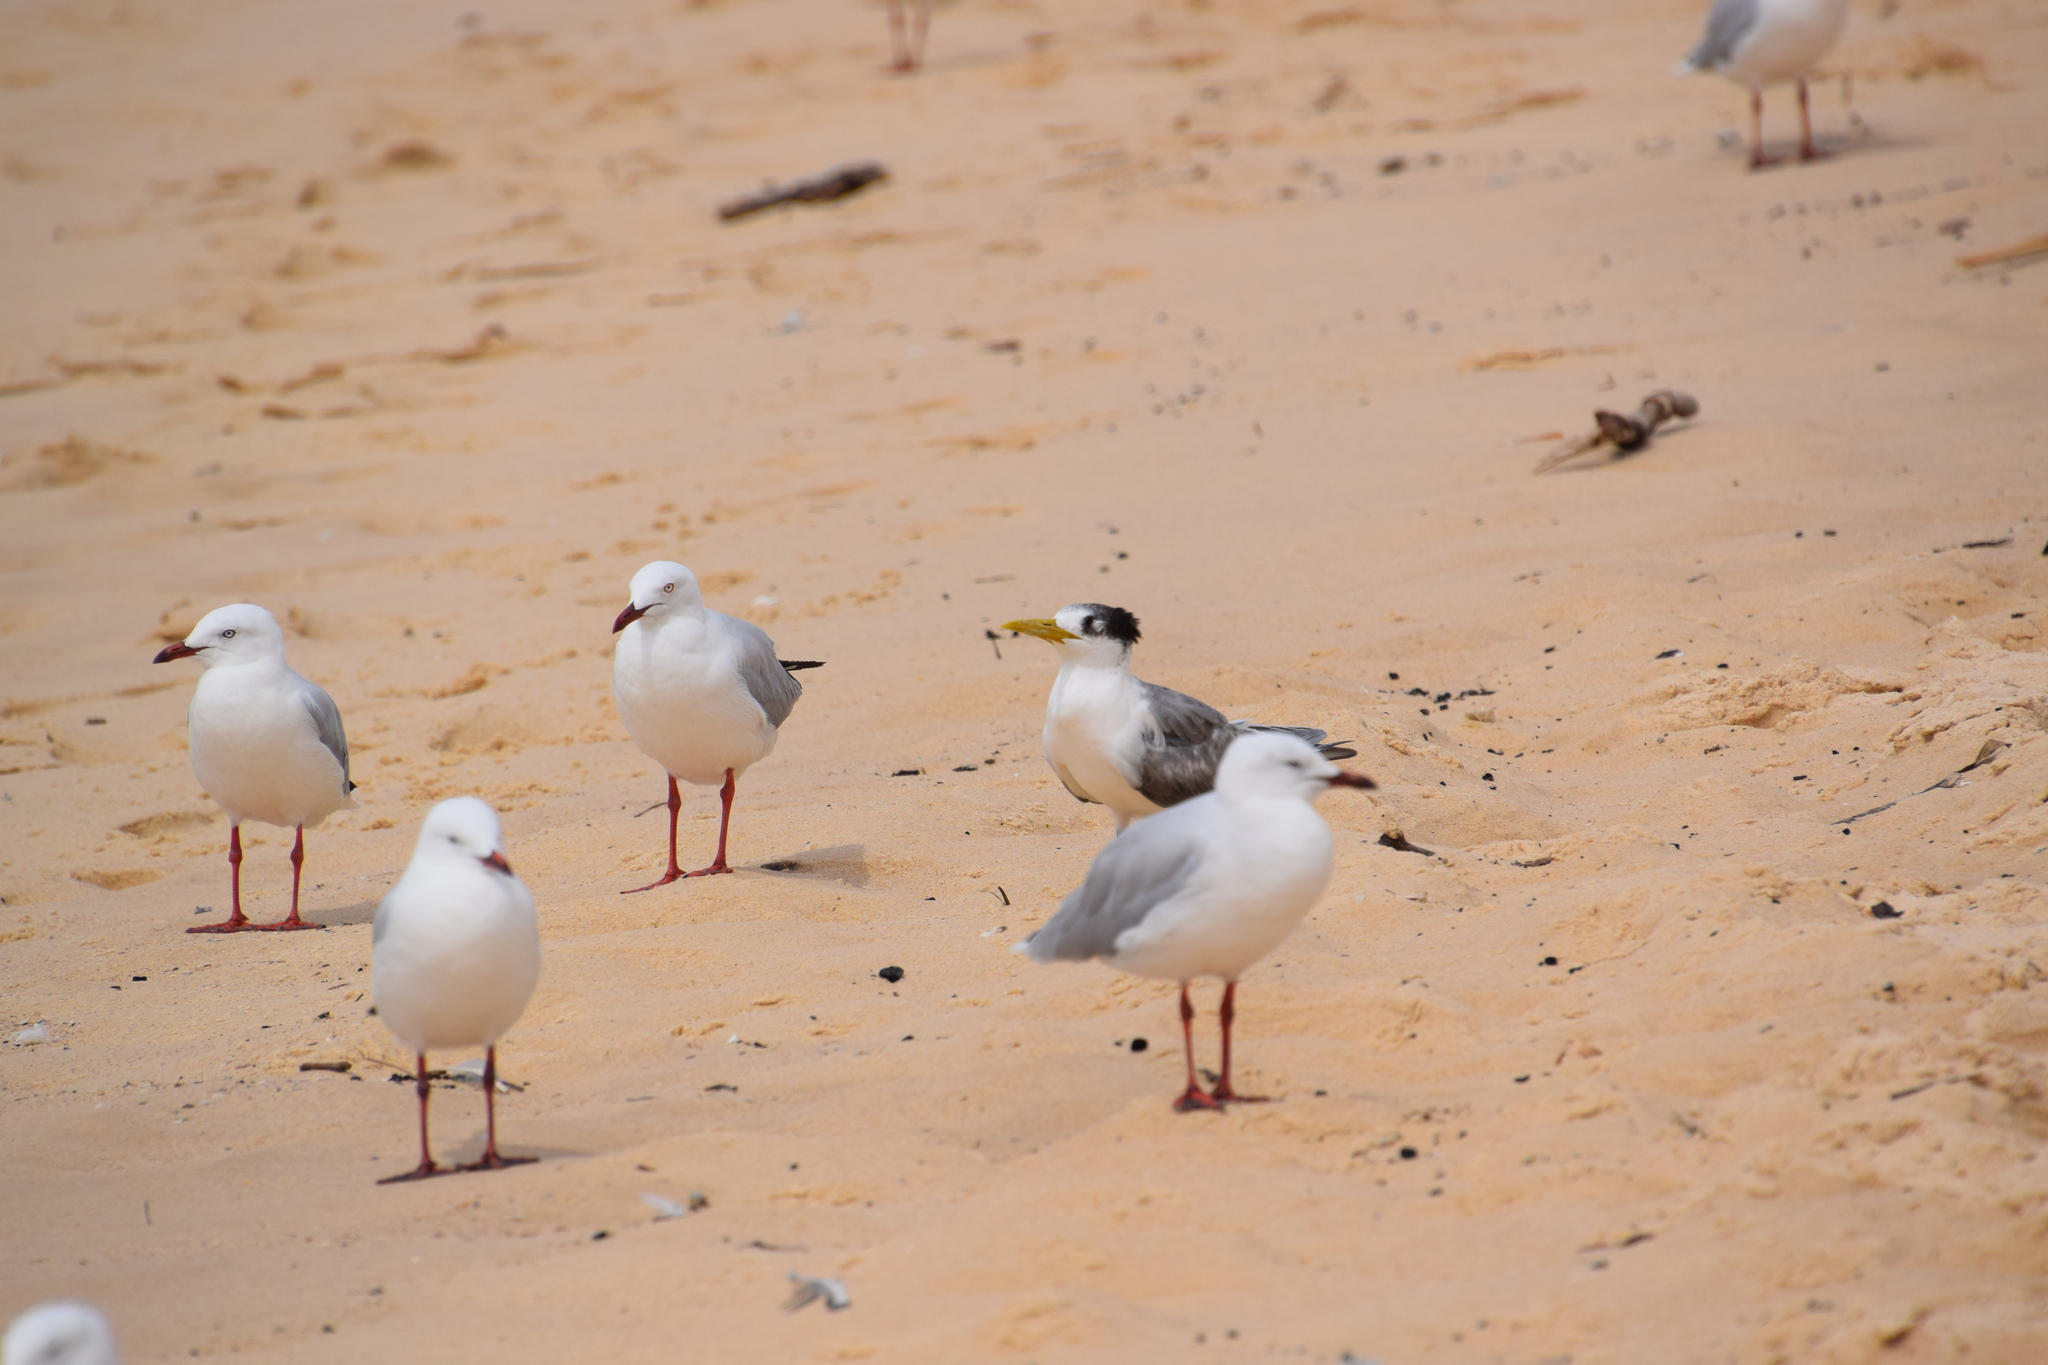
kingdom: Animalia
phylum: Chordata
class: Aves
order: Charadriiformes
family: Laridae
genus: Thalasseus
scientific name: Thalasseus bergii
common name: Greater crested tern
